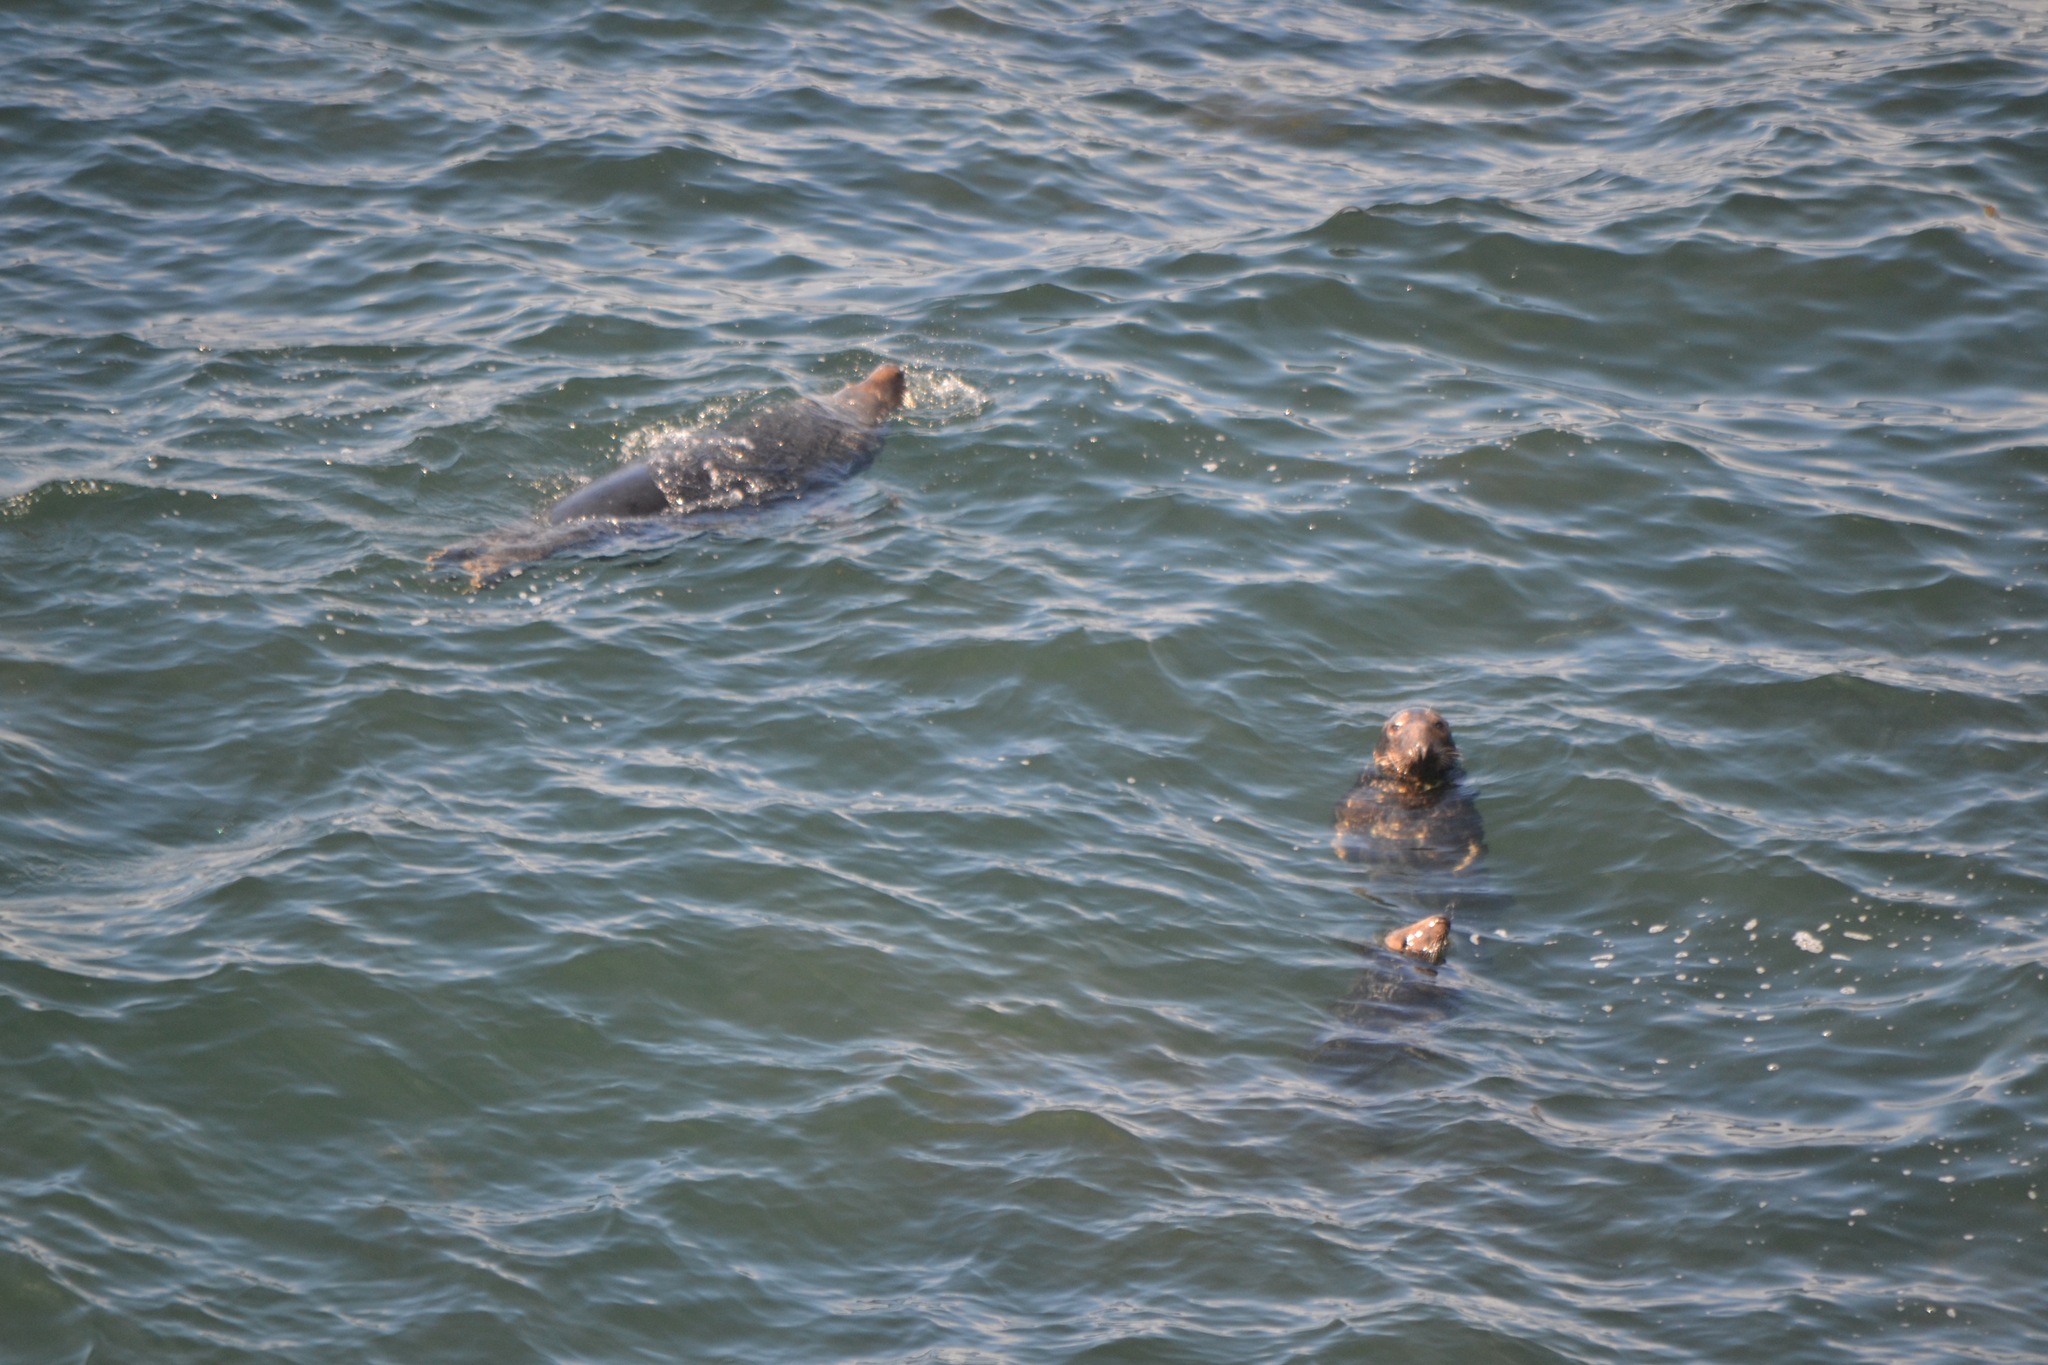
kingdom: Animalia
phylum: Chordata
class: Mammalia
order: Carnivora
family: Phocidae
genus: Halichoerus
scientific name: Halichoerus grypus
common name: Grey seal
